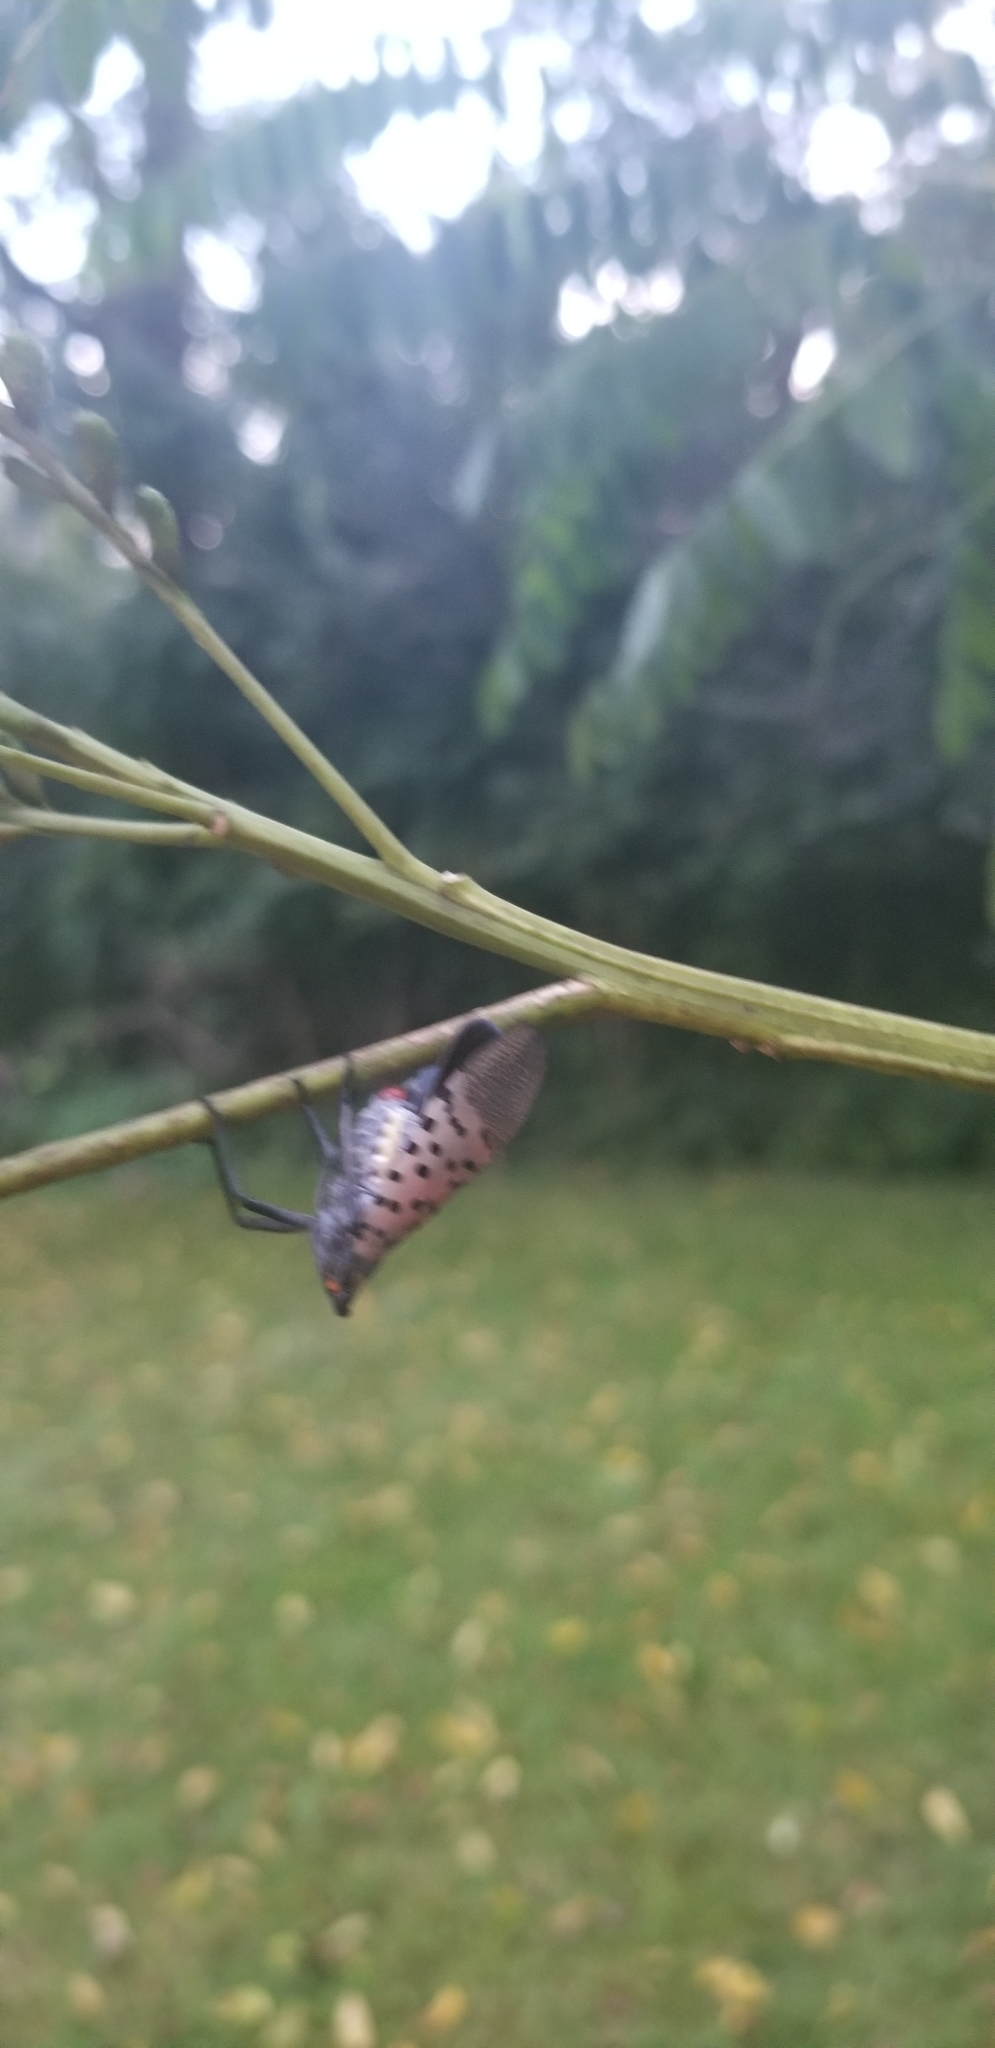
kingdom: Animalia
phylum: Arthropoda
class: Insecta
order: Hemiptera
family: Fulgoridae
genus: Lycorma
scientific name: Lycorma delicatula
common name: Spotted lanternfly
